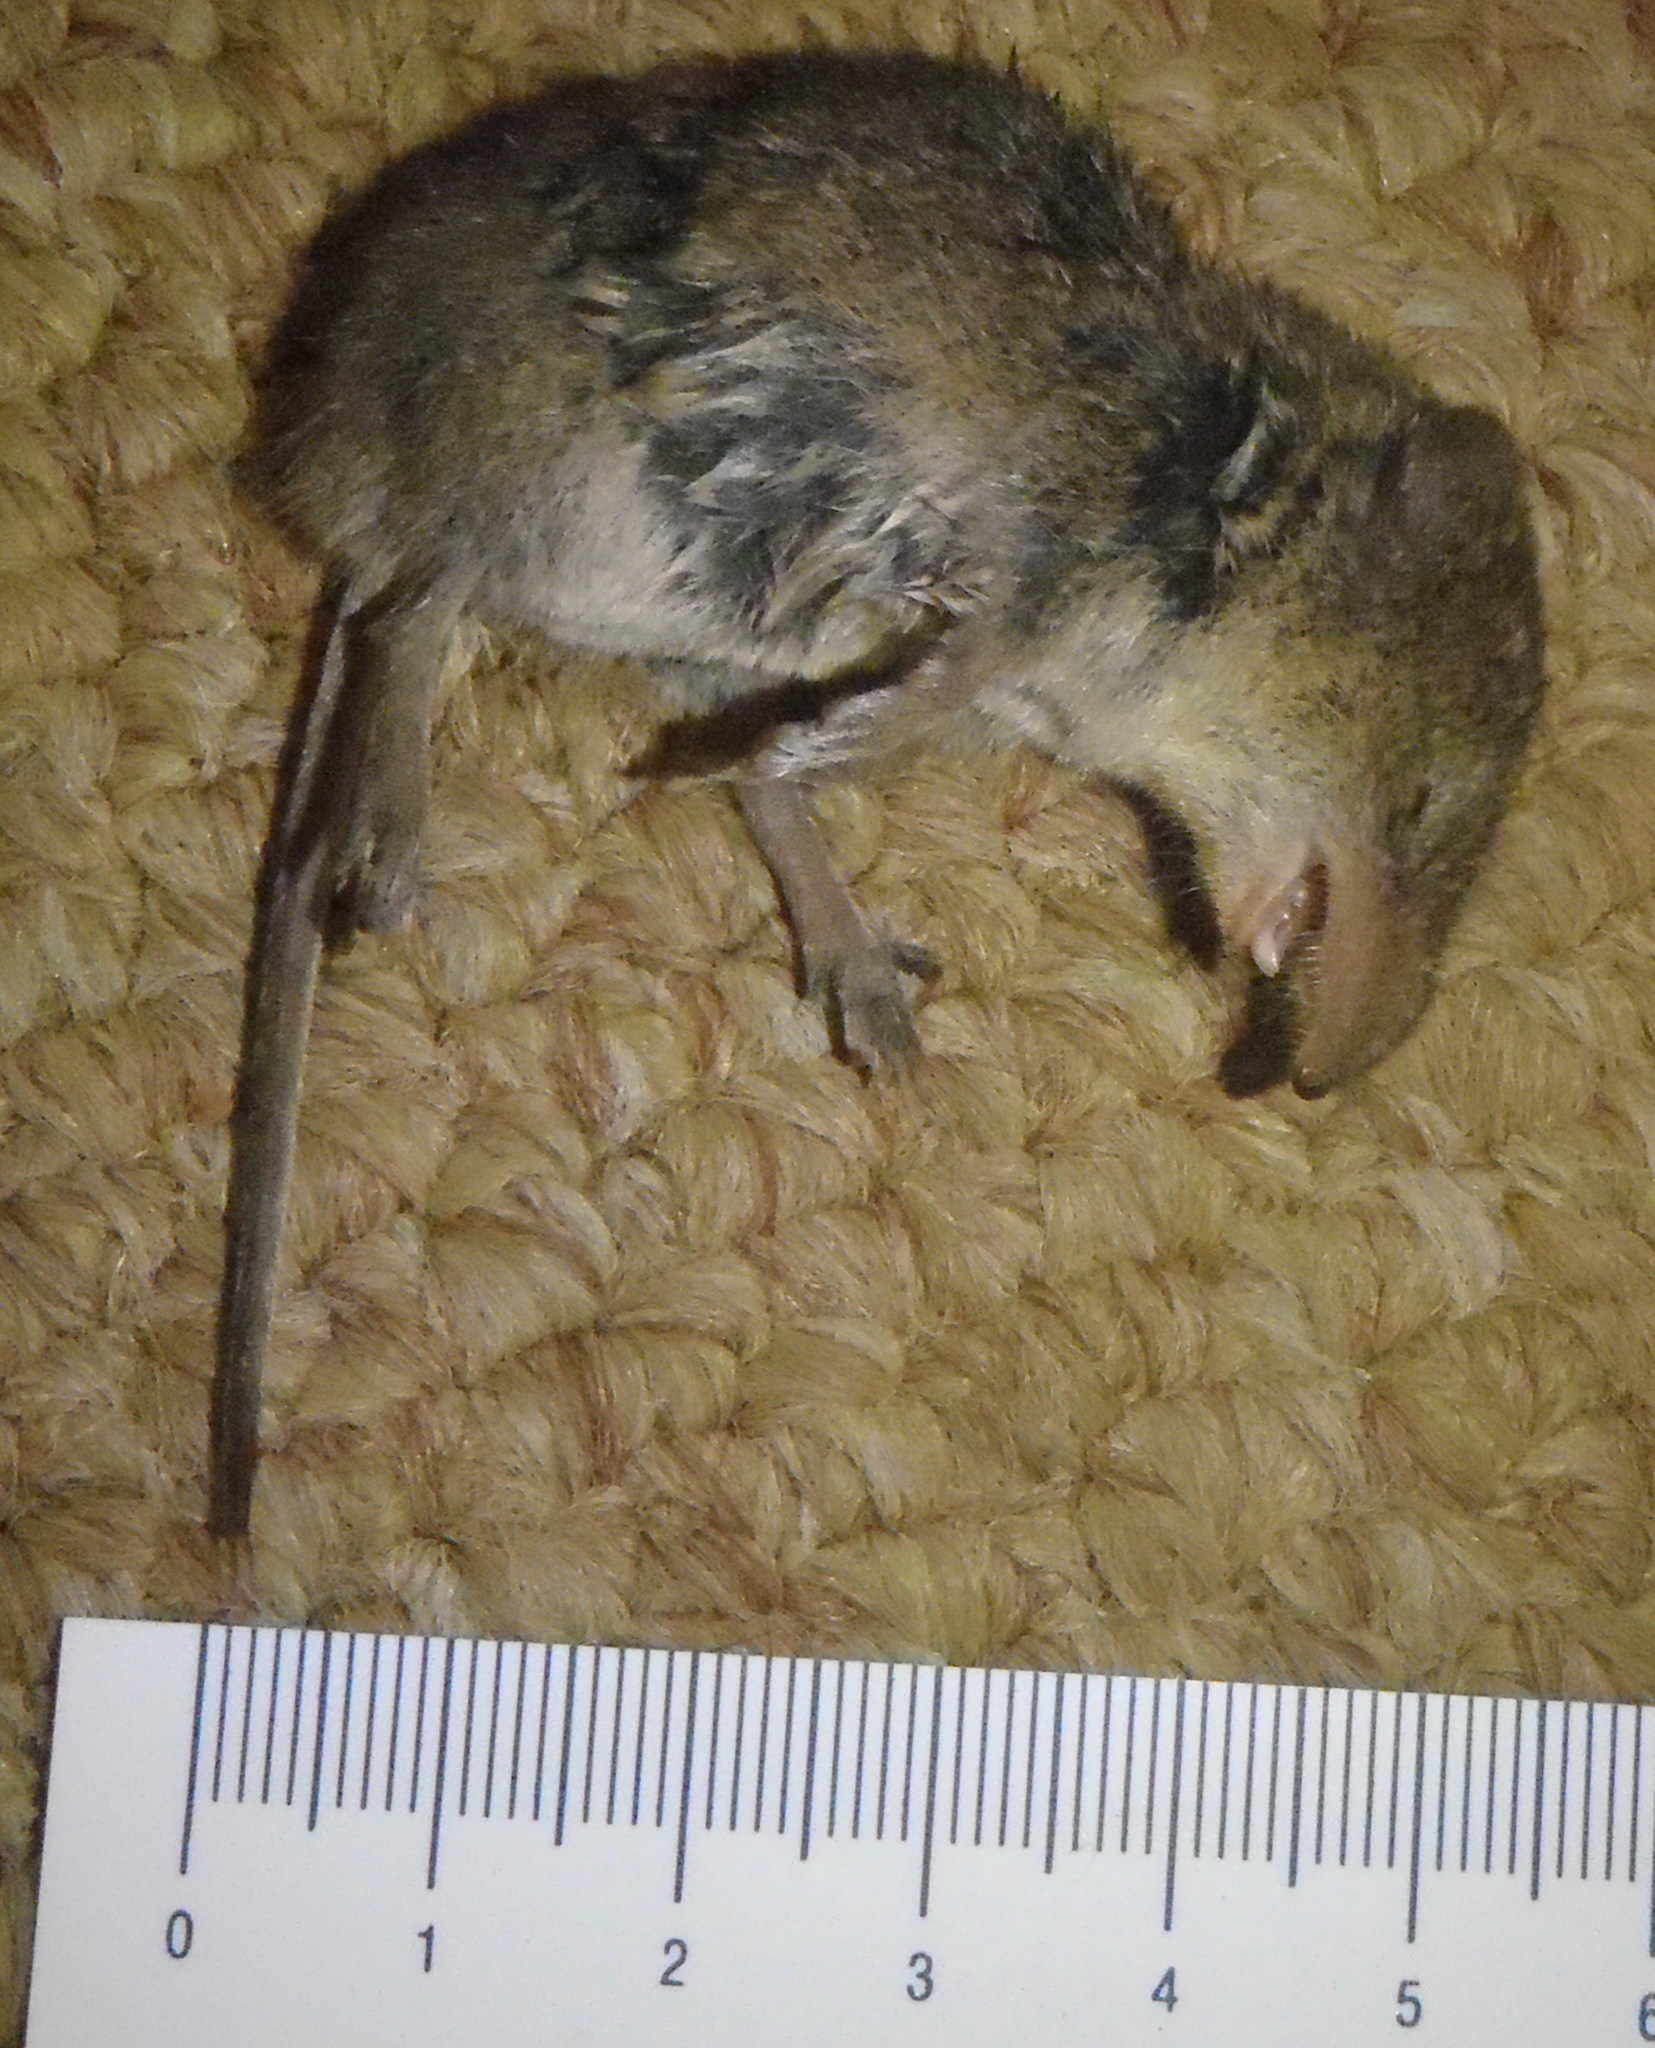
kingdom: Animalia
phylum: Chordata
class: Mammalia
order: Soricomorpha
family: Soricidae
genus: Suncus
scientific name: Suncus infinitesimus
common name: Least dwarf shrew
